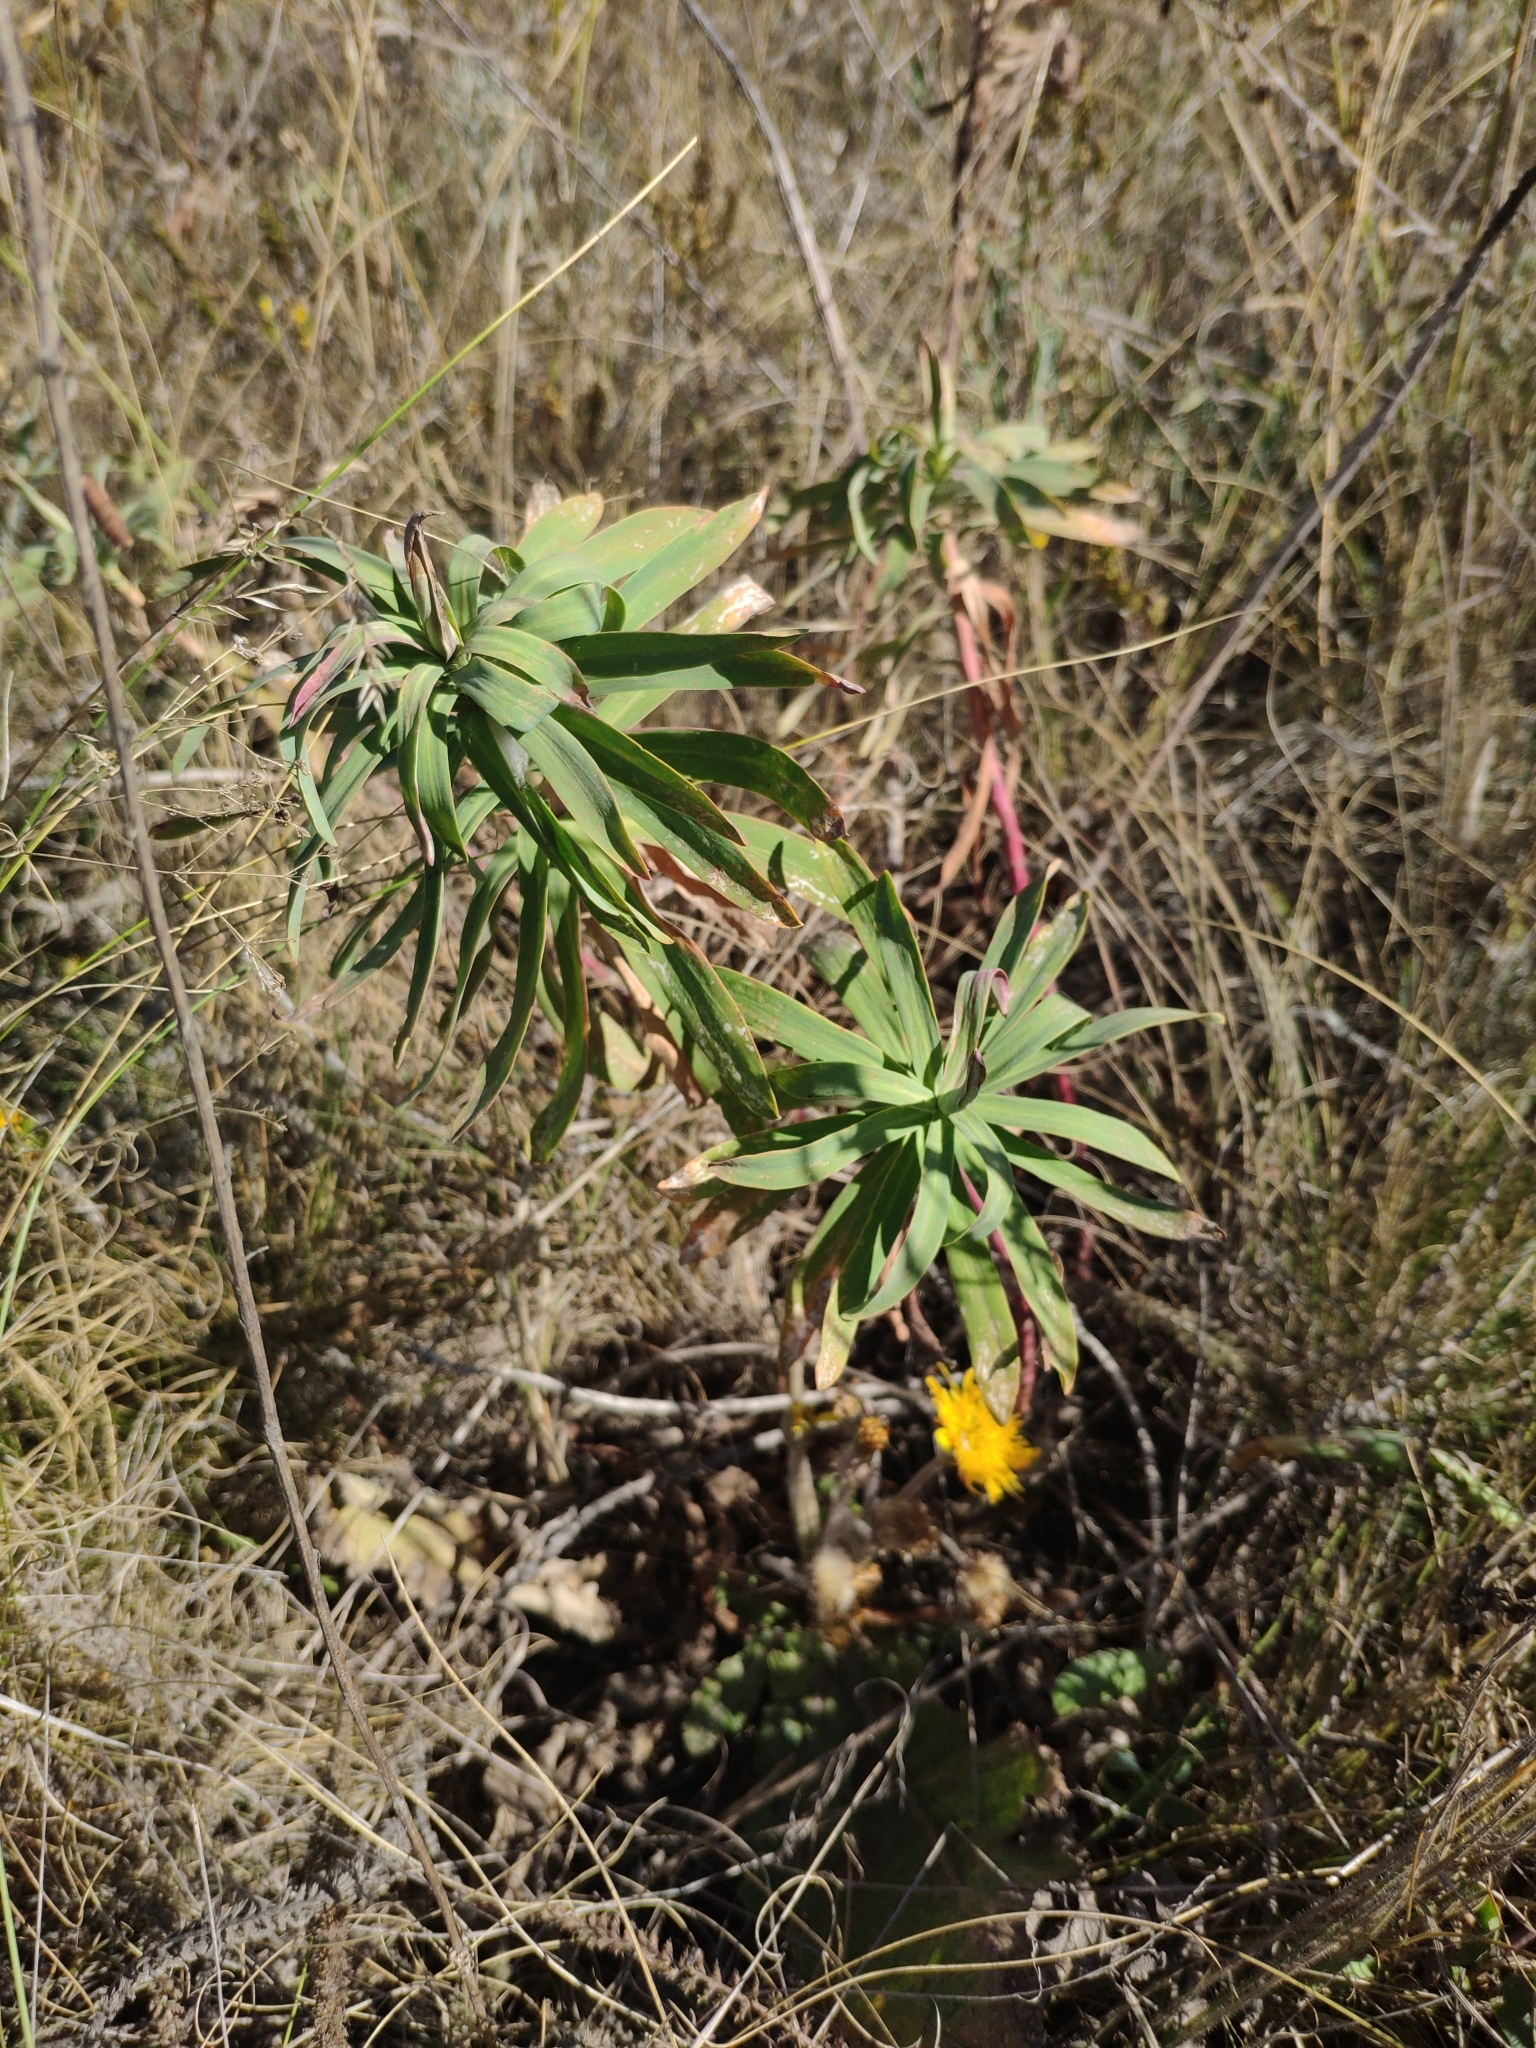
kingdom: Plantae
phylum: Tracheophyta
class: Magnoliopsida
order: Malpighiales
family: Euphorbiaceae
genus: Euphorbia
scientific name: Euphorbia stepposa
